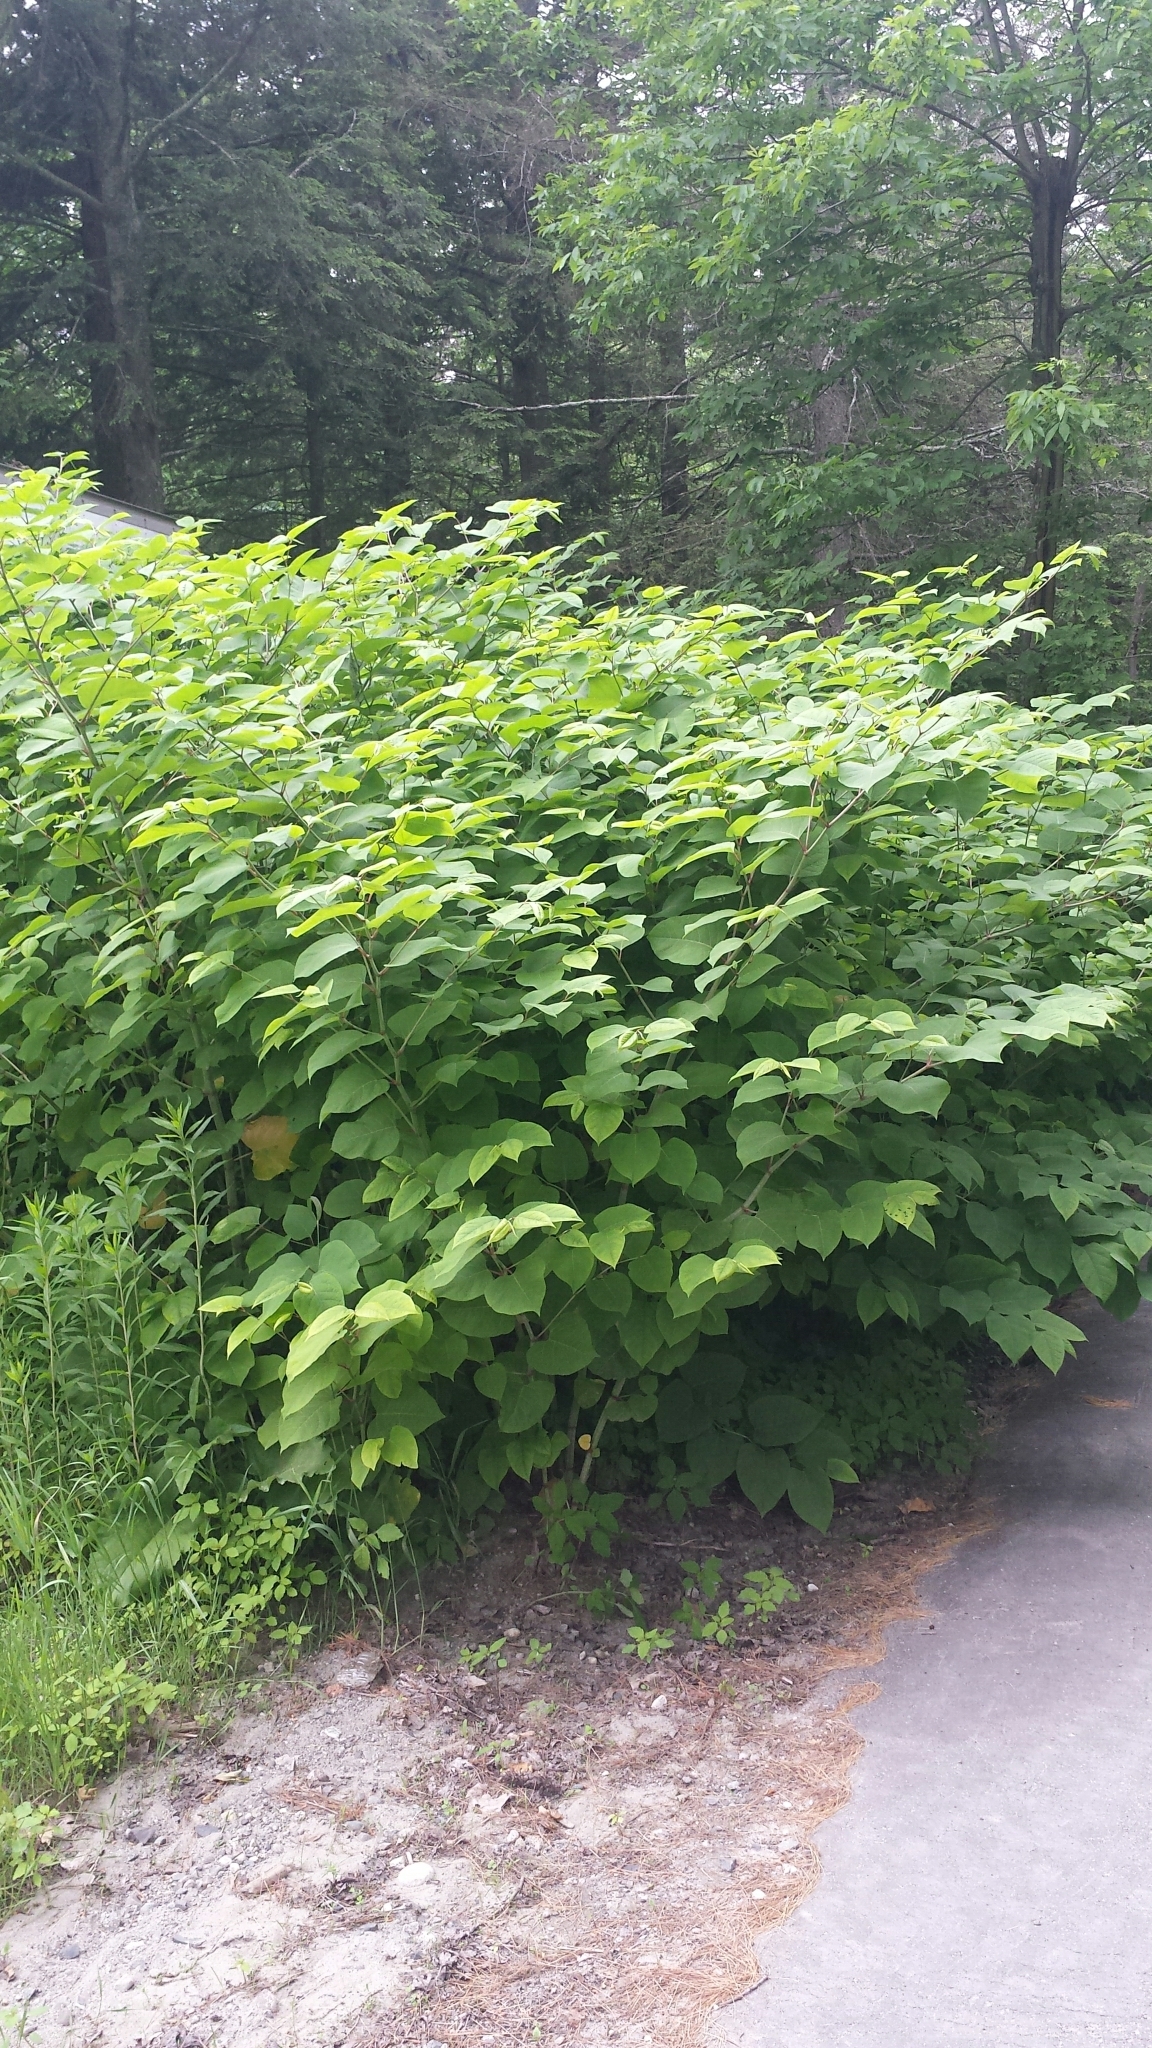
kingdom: Plantae
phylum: Tracheophyta
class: Magnoliopsida
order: Caryophyllales
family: Polygonaceae
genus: Reynoutria
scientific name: Reynoutria japonica
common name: Japanese knotweed
